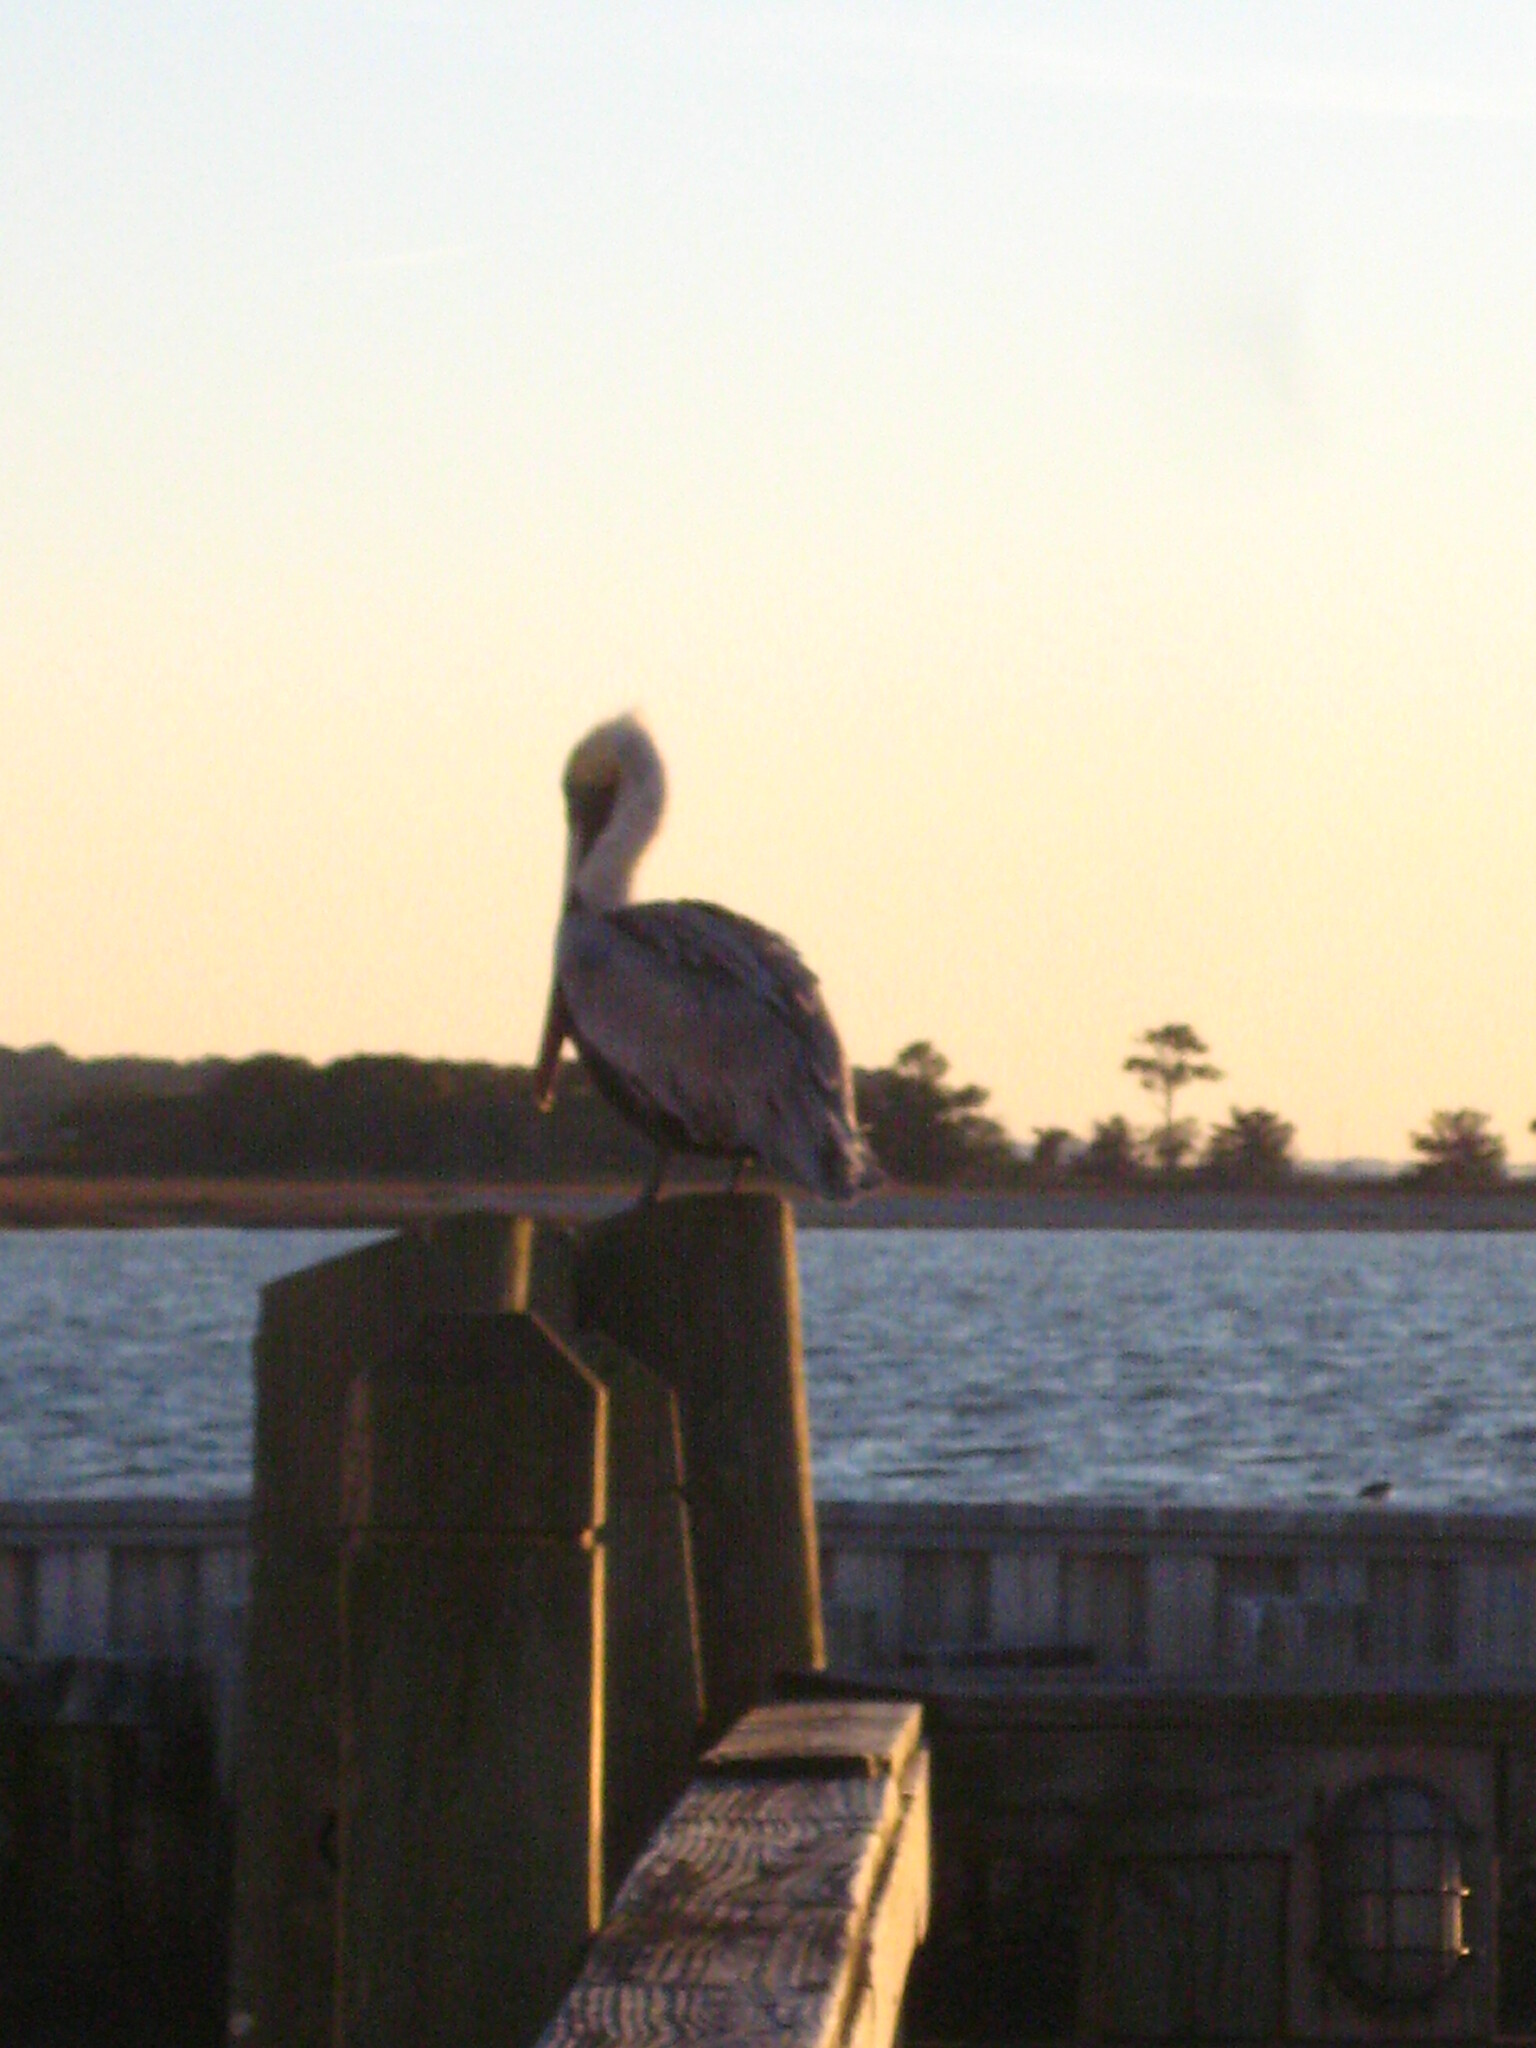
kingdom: Animalia
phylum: Chordata
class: Aves
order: Pelecaniformes
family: Pelecanidae
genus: Pelecanus
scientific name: Pelecanus occidentalis
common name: Brown pelican
